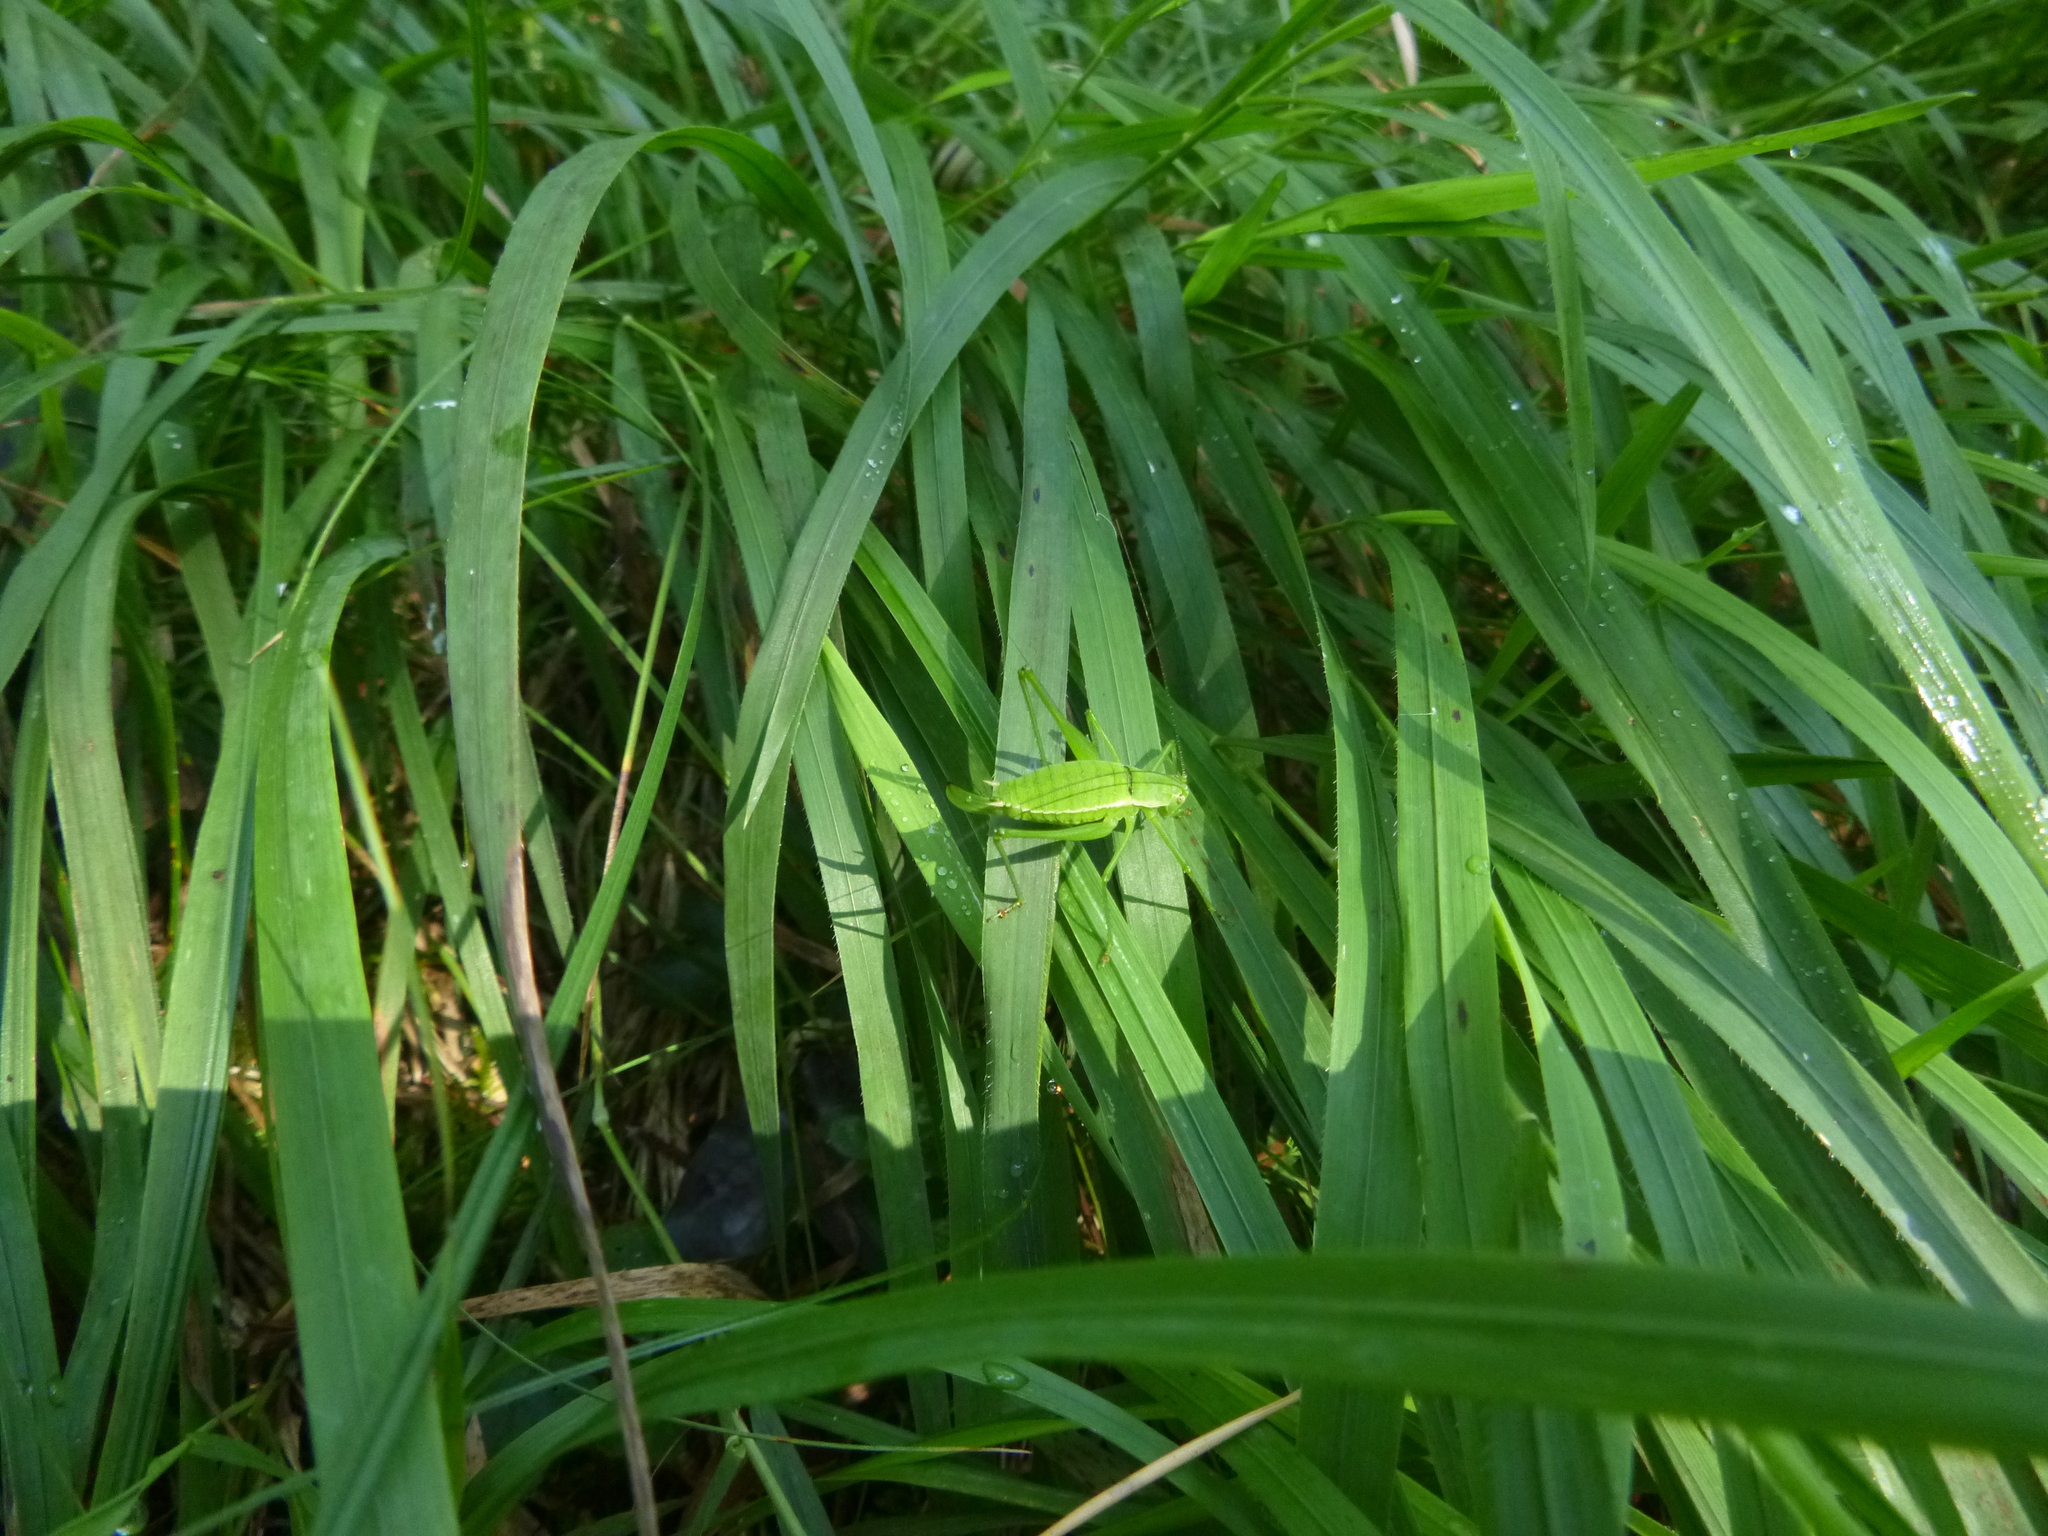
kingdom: Animalia
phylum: Arthropoda
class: Insecta
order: Orthoptera
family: Tettigoniidae
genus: Leptophyes
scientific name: Leptophyes boscii
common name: Balkan speckled bush-cricket
